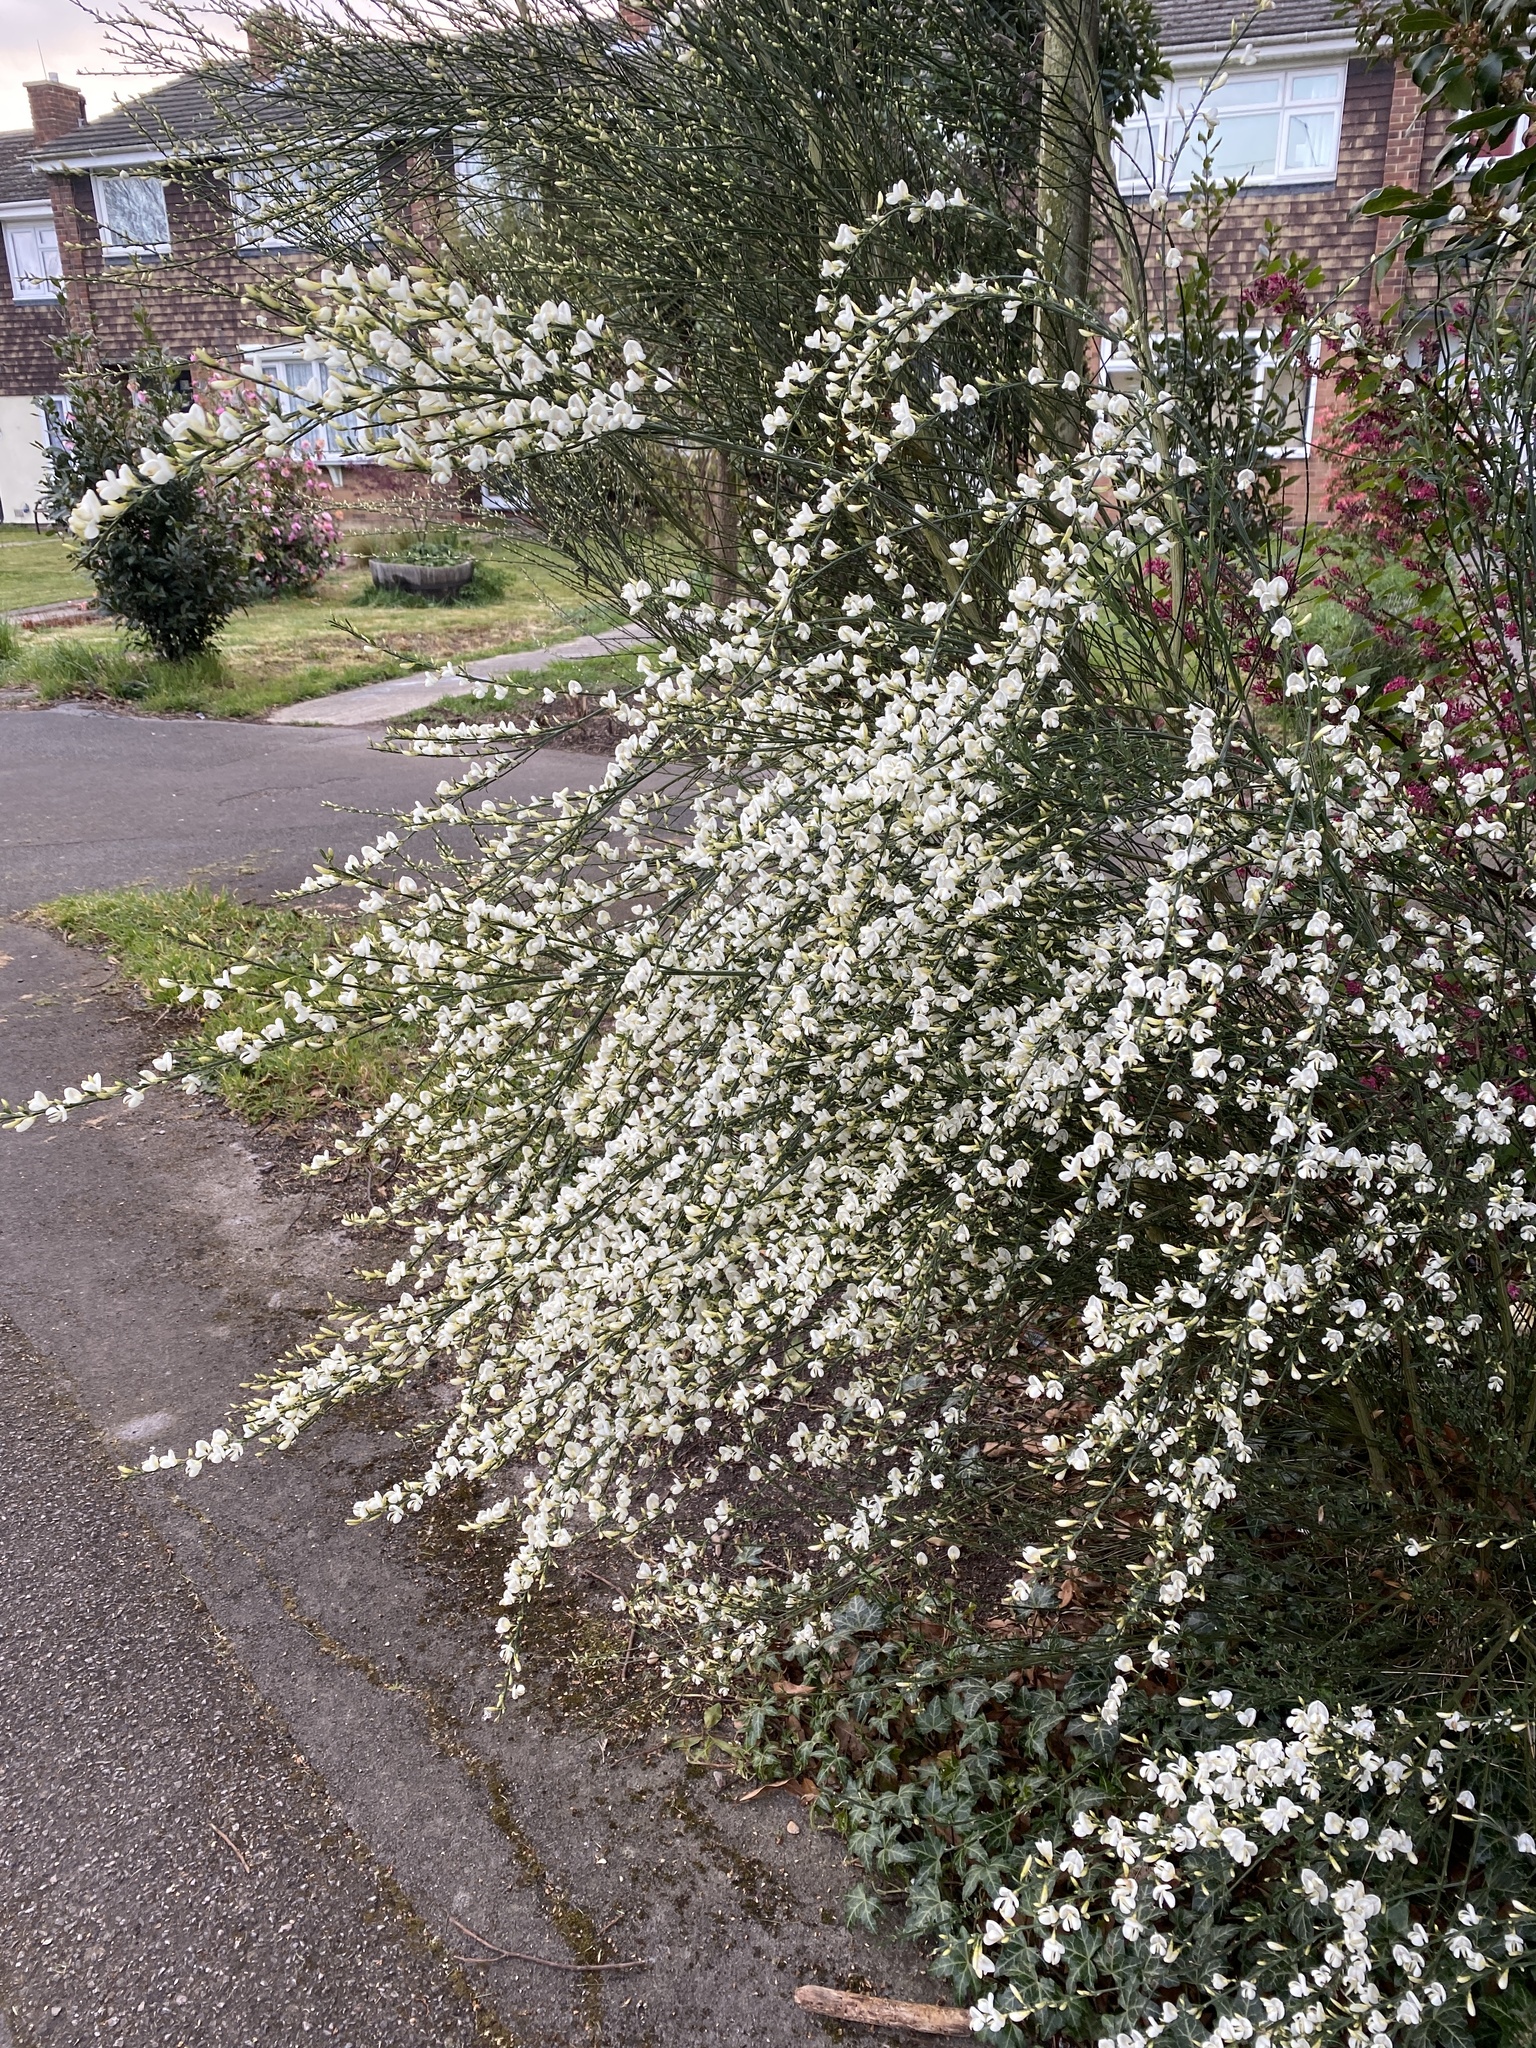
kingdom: Plantae
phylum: Tracheophyta
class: Magnoliopsida
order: Fabales
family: Fabaceae
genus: Cytisus
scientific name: Cytisus praecox
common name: Warminster broom
